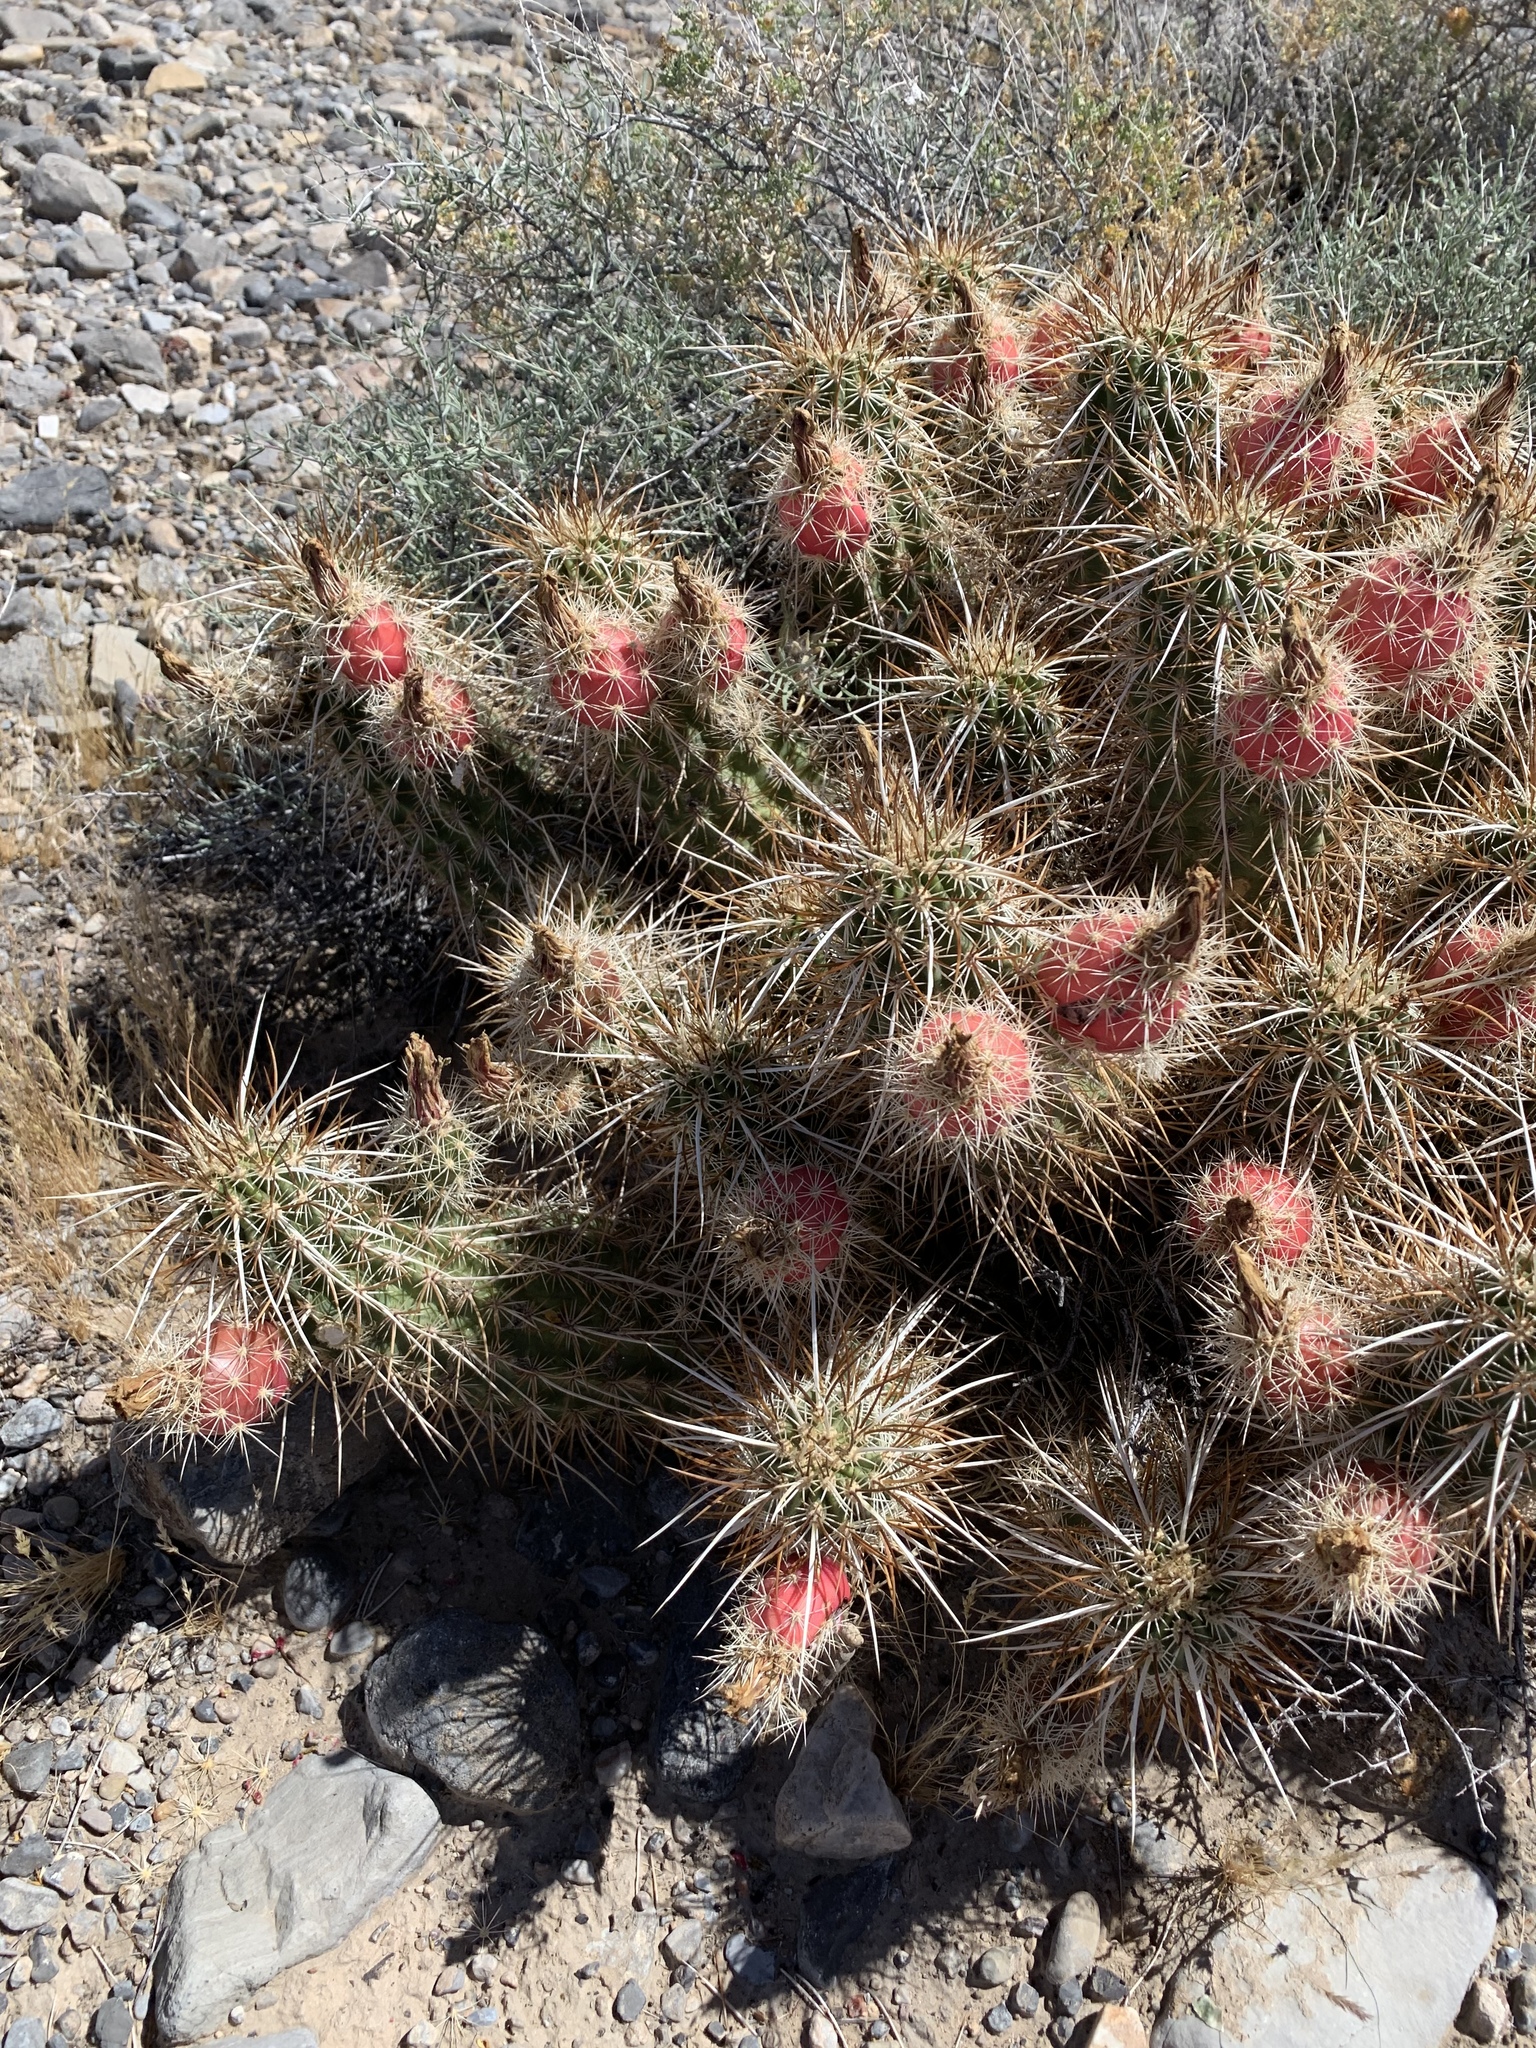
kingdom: Plantae
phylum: Tracheophyta
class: Magnoliopsida
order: Caryophyllales
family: Cactaceae
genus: Echinocereus
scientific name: Echinocereus engelmannii
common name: Engelmann's hedgehog cactus
